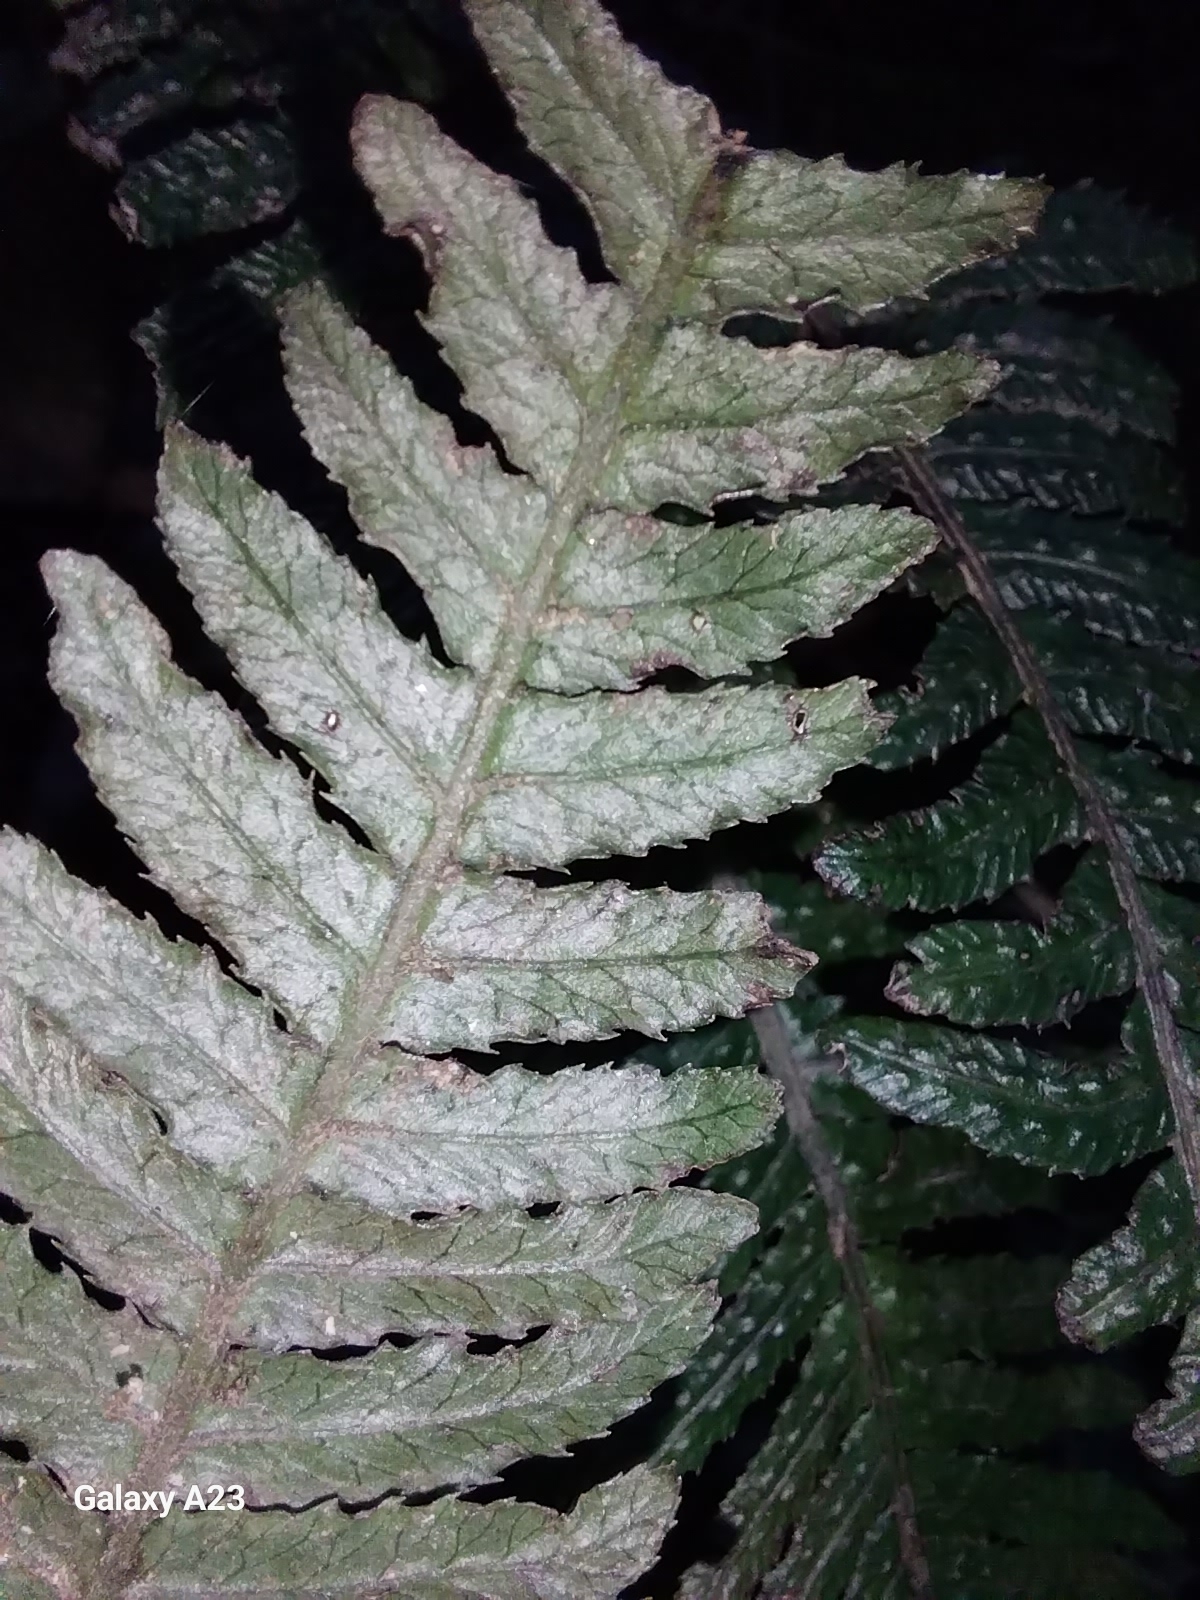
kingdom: Plantae
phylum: Tracheophyta
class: Polypodiopsida
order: Polypodiales
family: Blechnaceae
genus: Doodia
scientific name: Doodia australis
